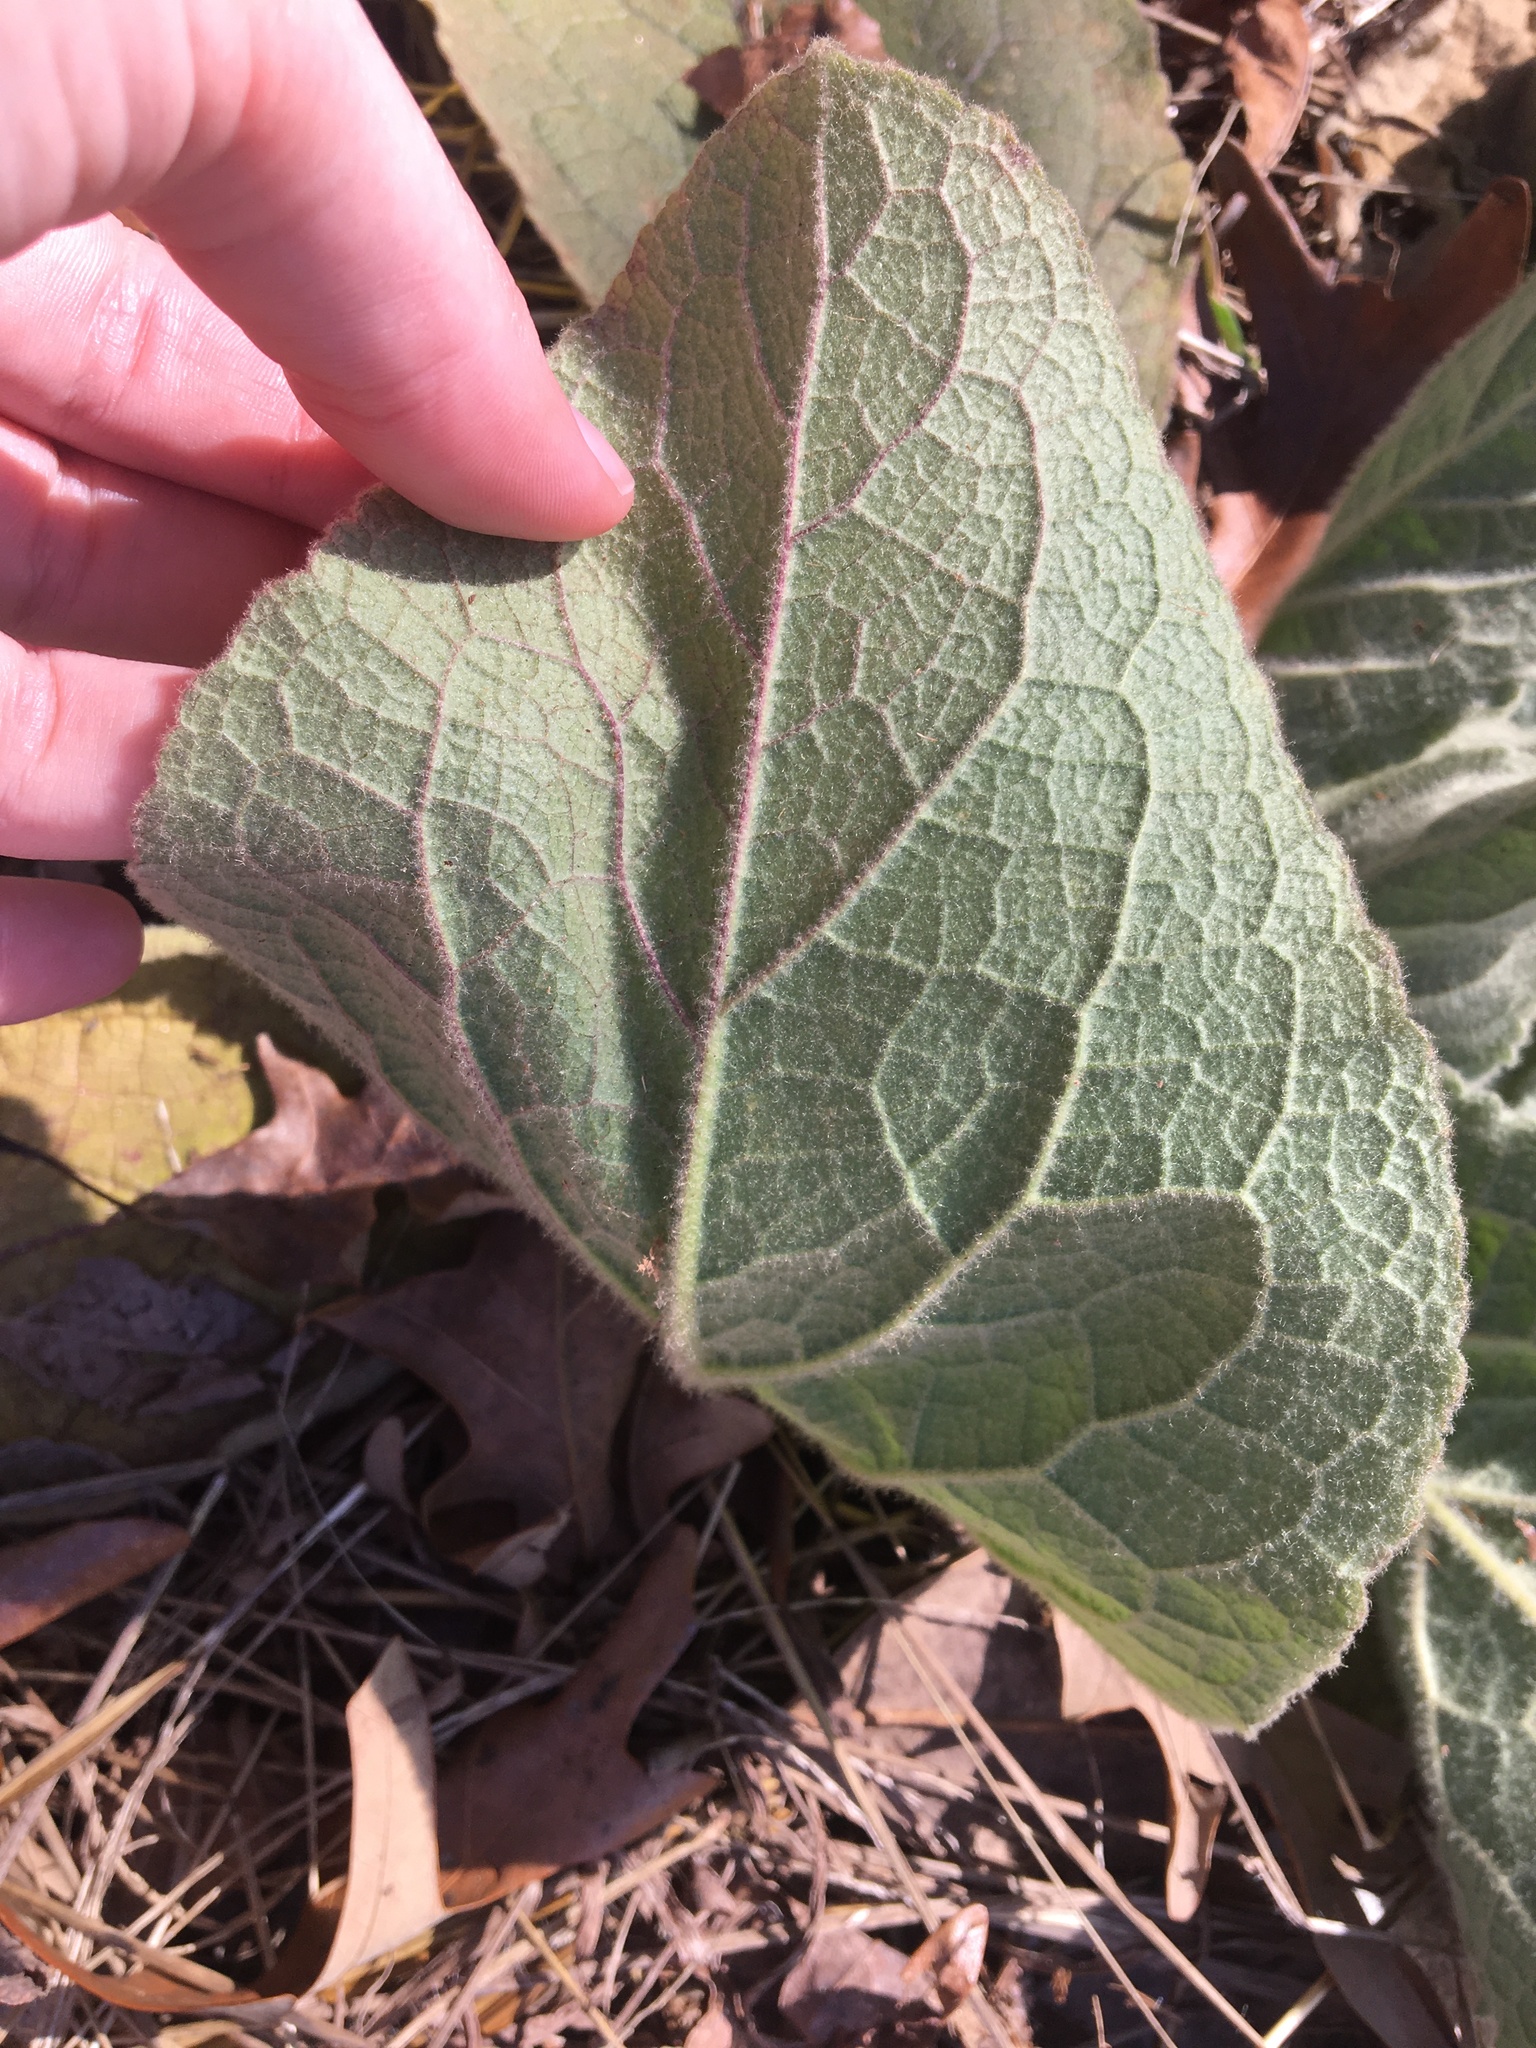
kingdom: Plantae
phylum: Tracheophyta
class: Magnoliopsida
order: Lamiales
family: Scrophulariaceae
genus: Verbascum
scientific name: Verbascum thapsus
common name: Common mullein
